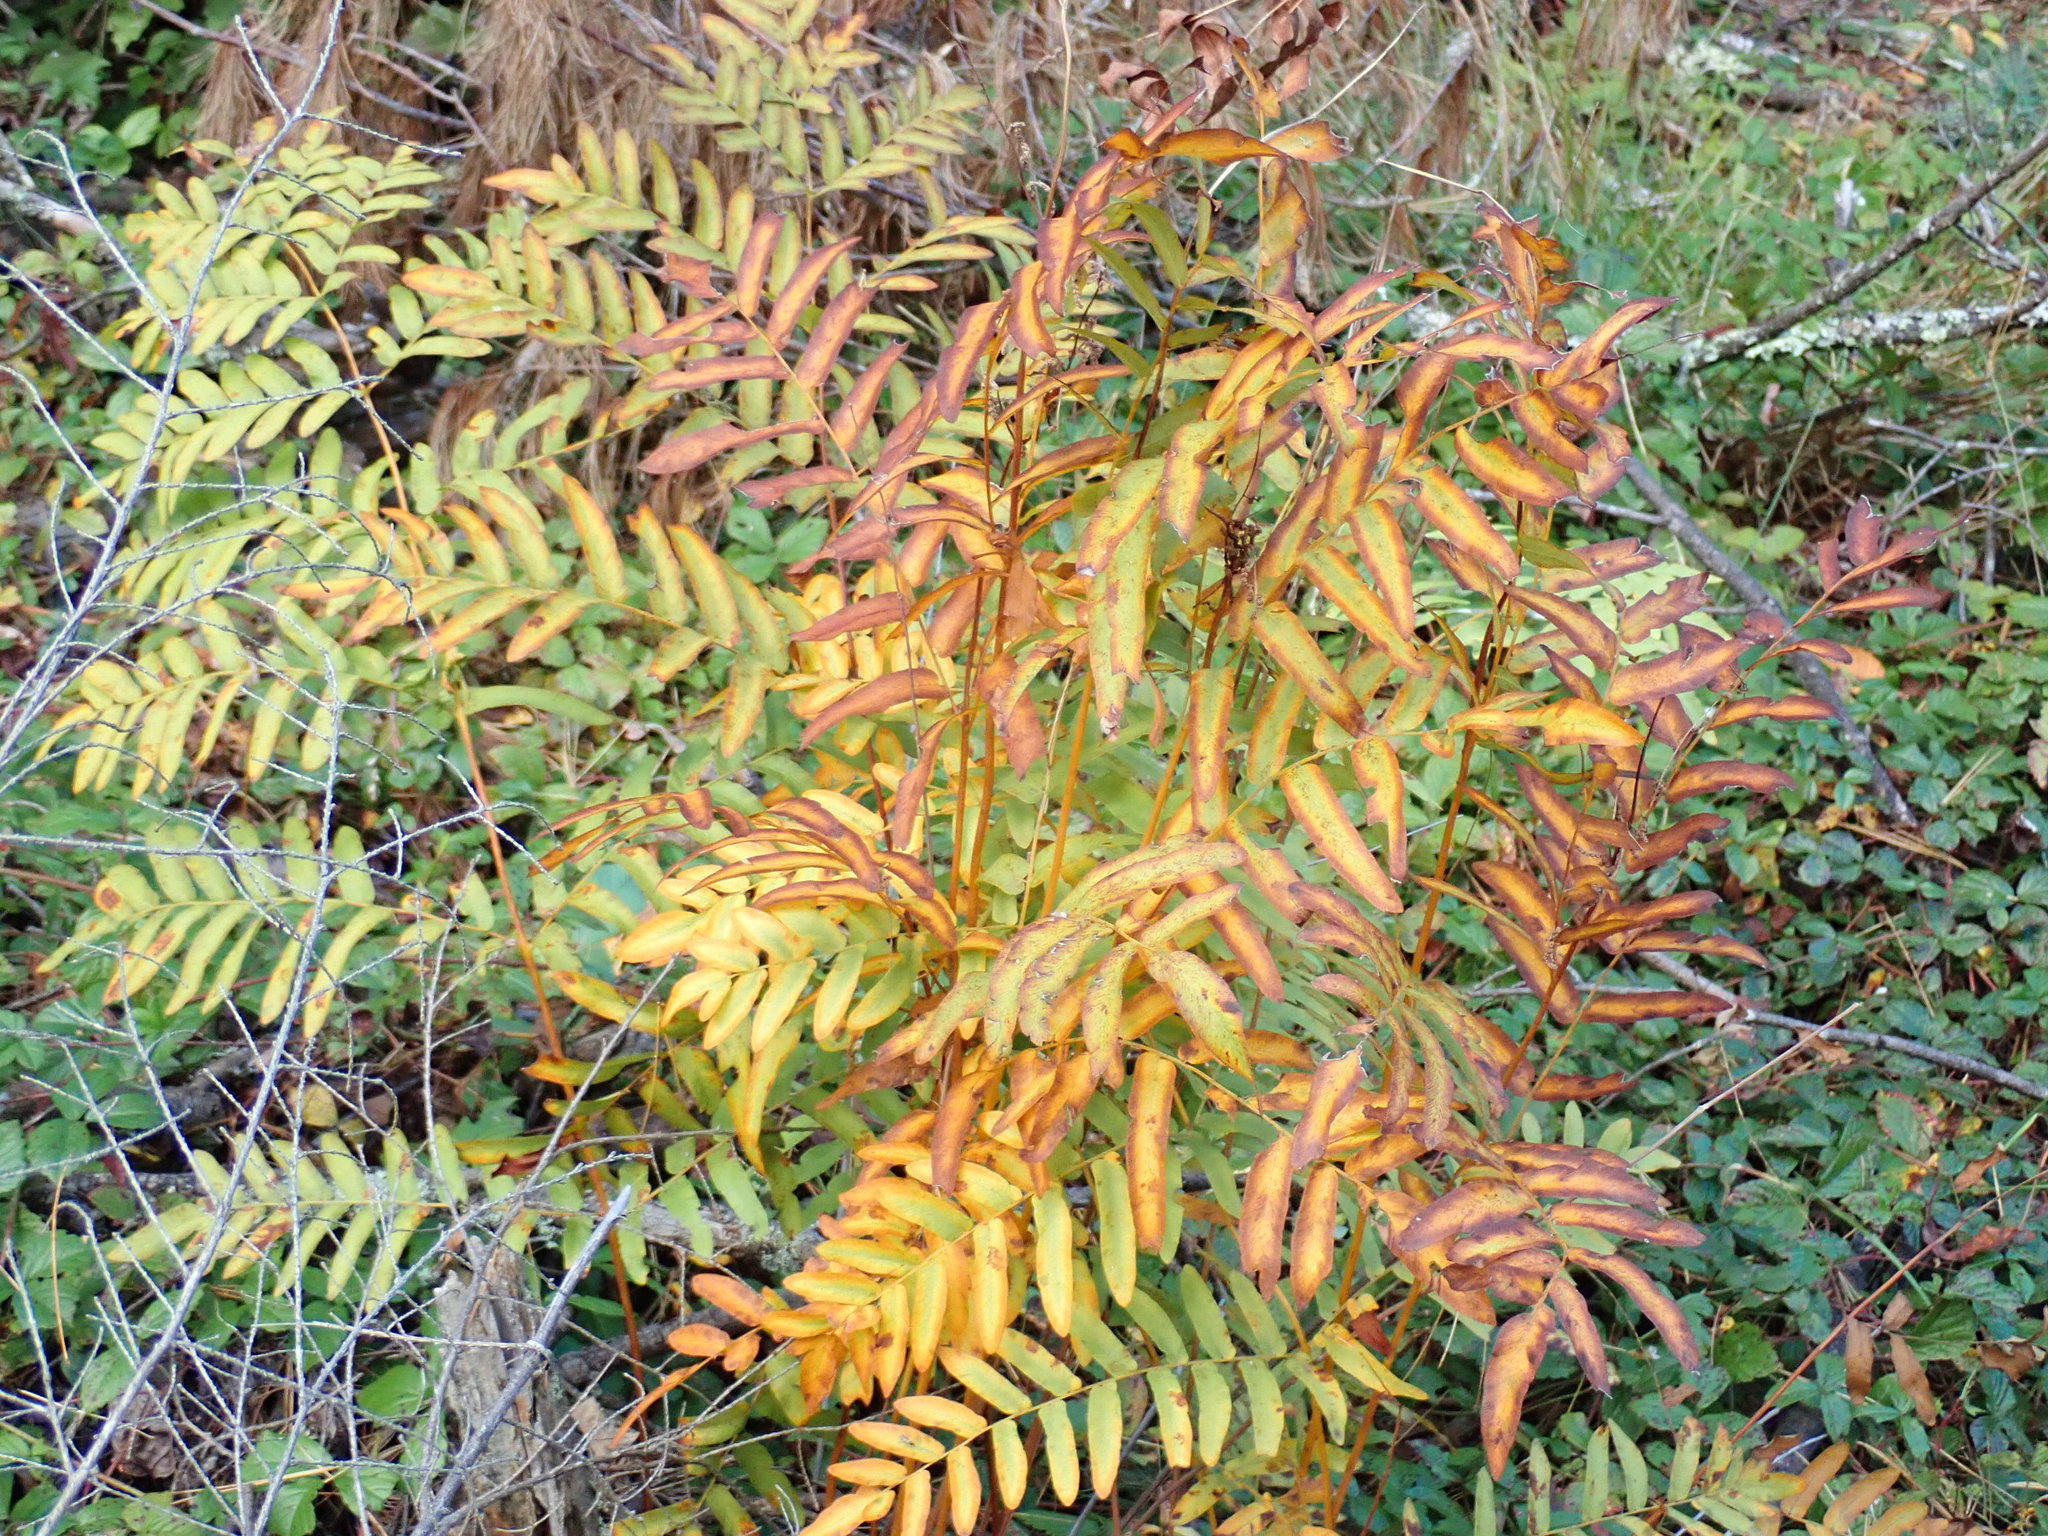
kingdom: Plantae
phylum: Tracheophyta
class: Polypodiopsida
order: Osmundales
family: Osmundaceae
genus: Osmunda
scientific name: Osmunda spectabilis
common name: American royal fern
